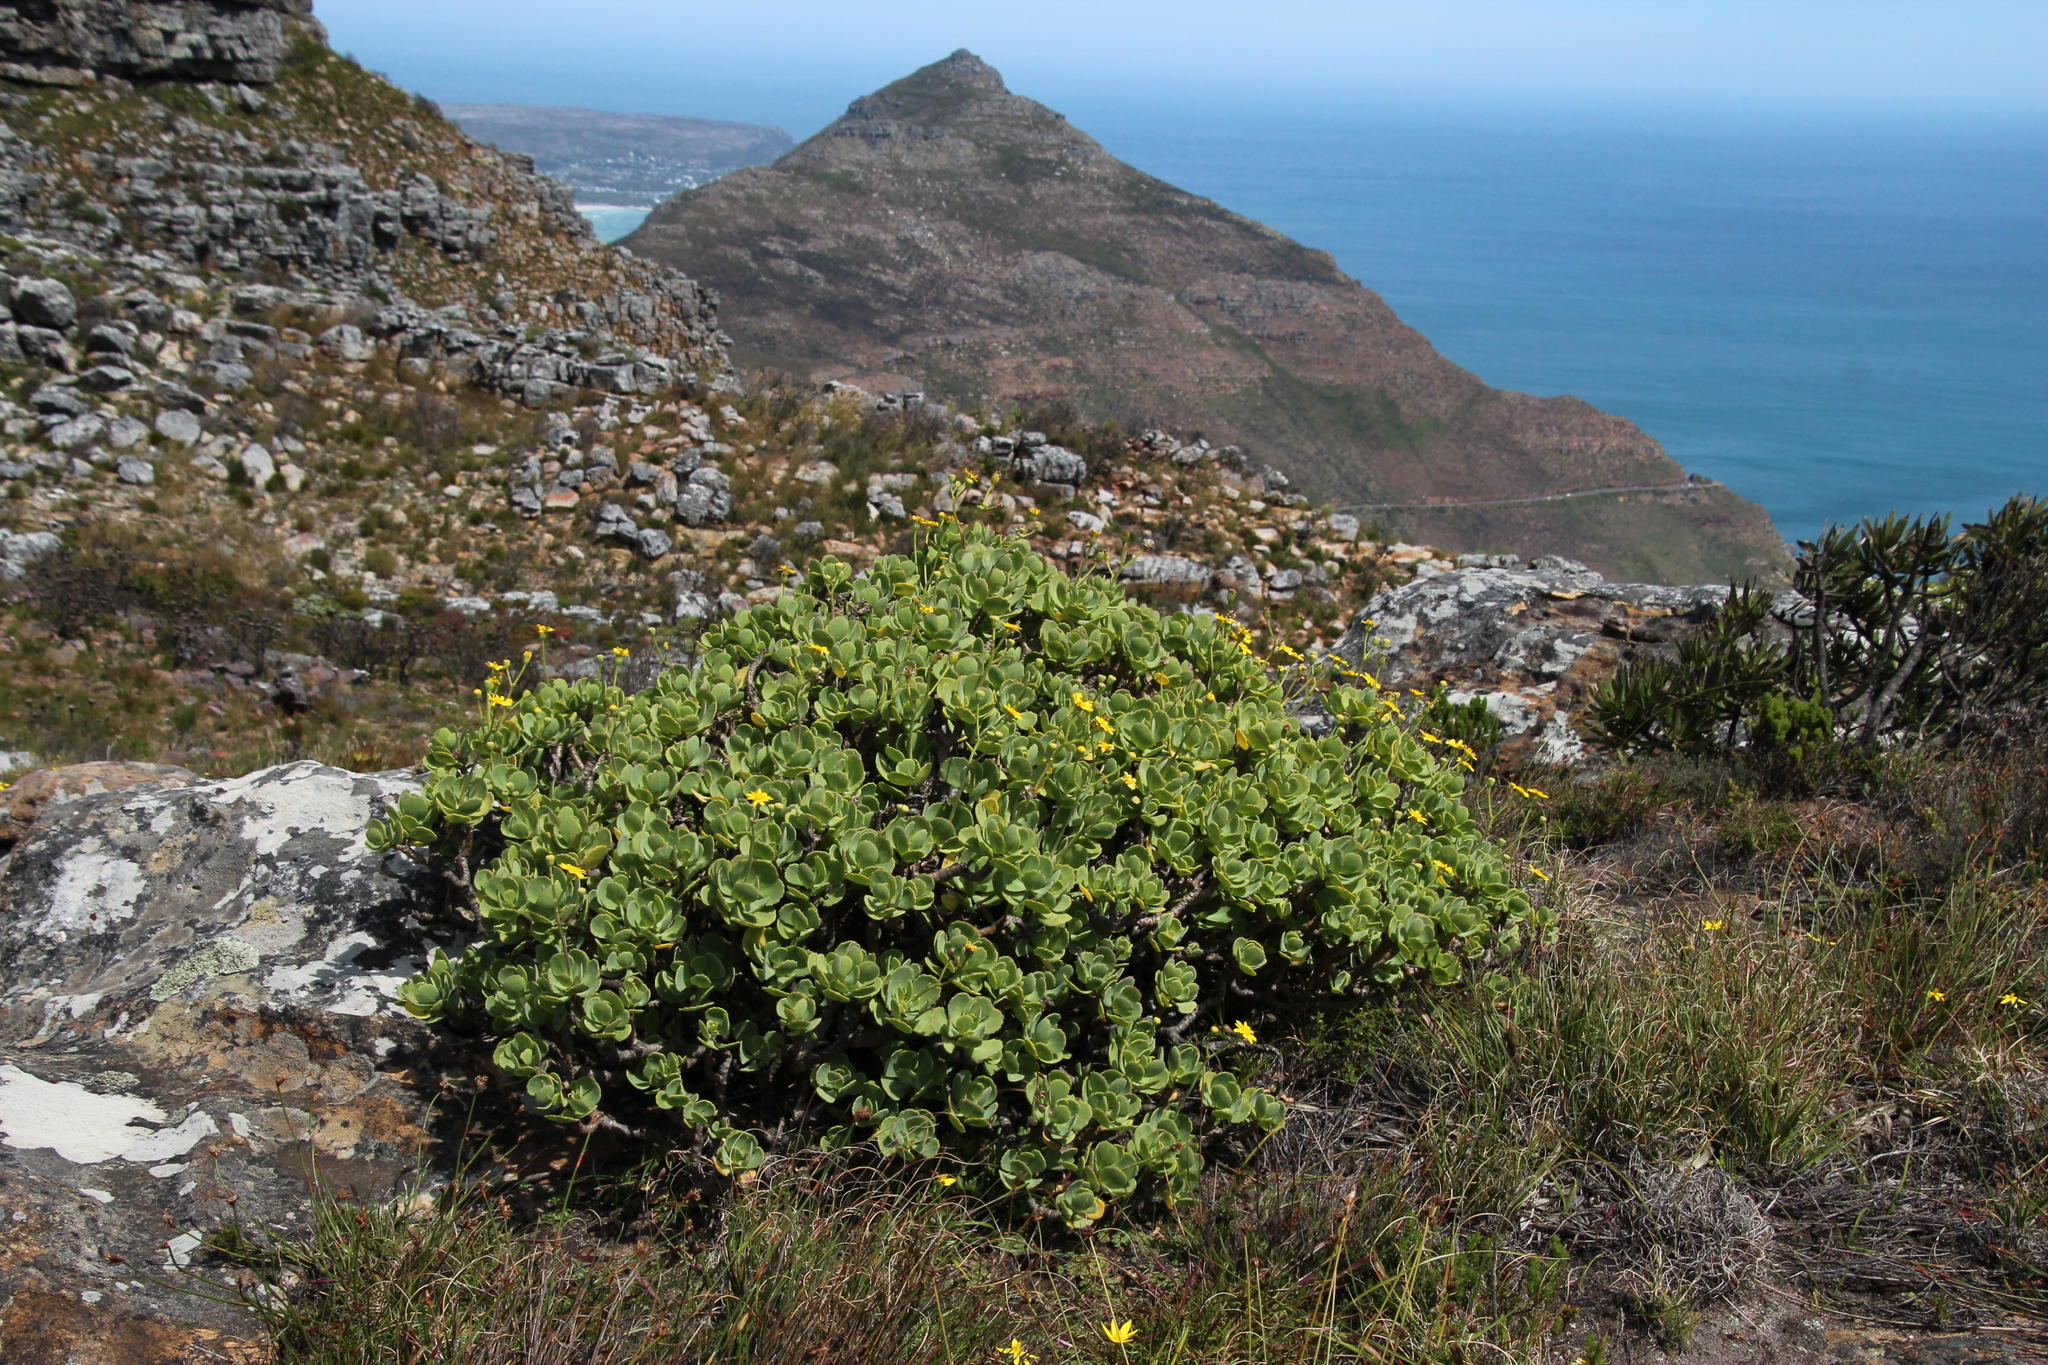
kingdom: Plantae
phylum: Tracheophyta
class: Magnoliopsida
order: Asterales
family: Asteraceae
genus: Othonna
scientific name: Othonna dentata
